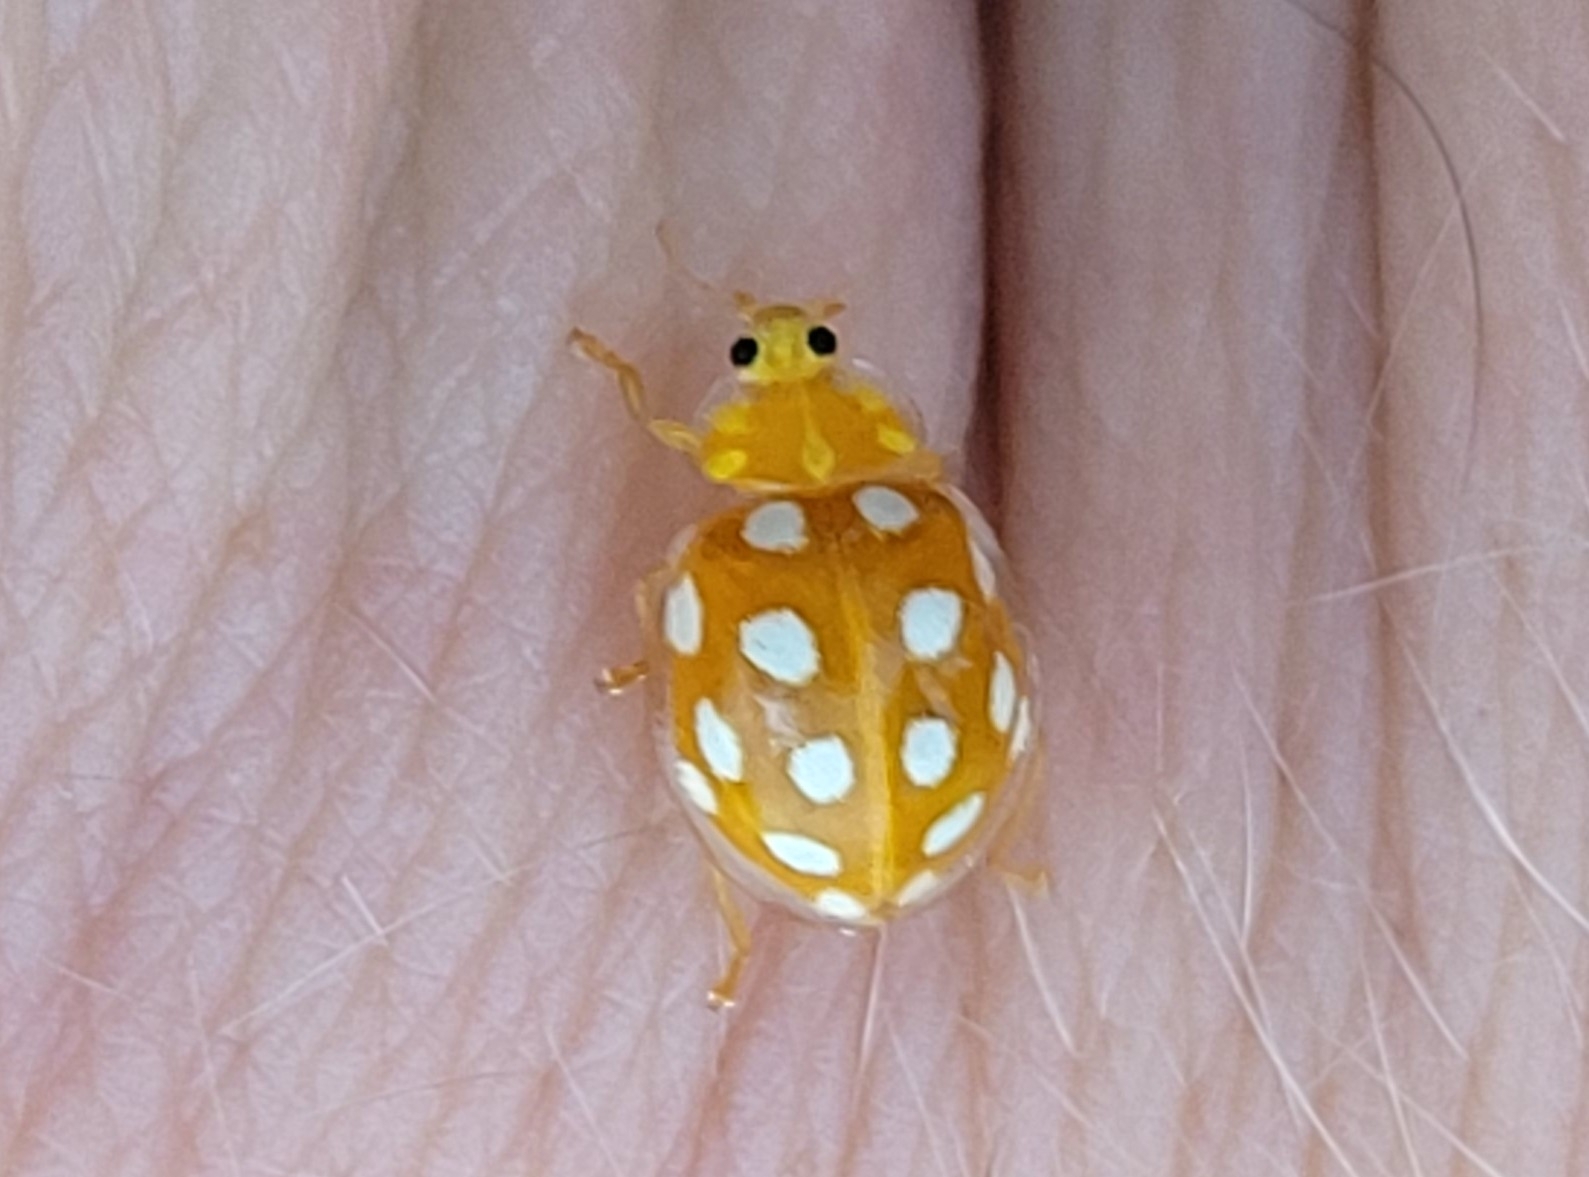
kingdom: Animalia
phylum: Arthropoda
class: Insecta
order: Coleoptera
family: Coccinellidae
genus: Halyzia
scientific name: Halyzia sedecimguttata
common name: Orange ladybird
